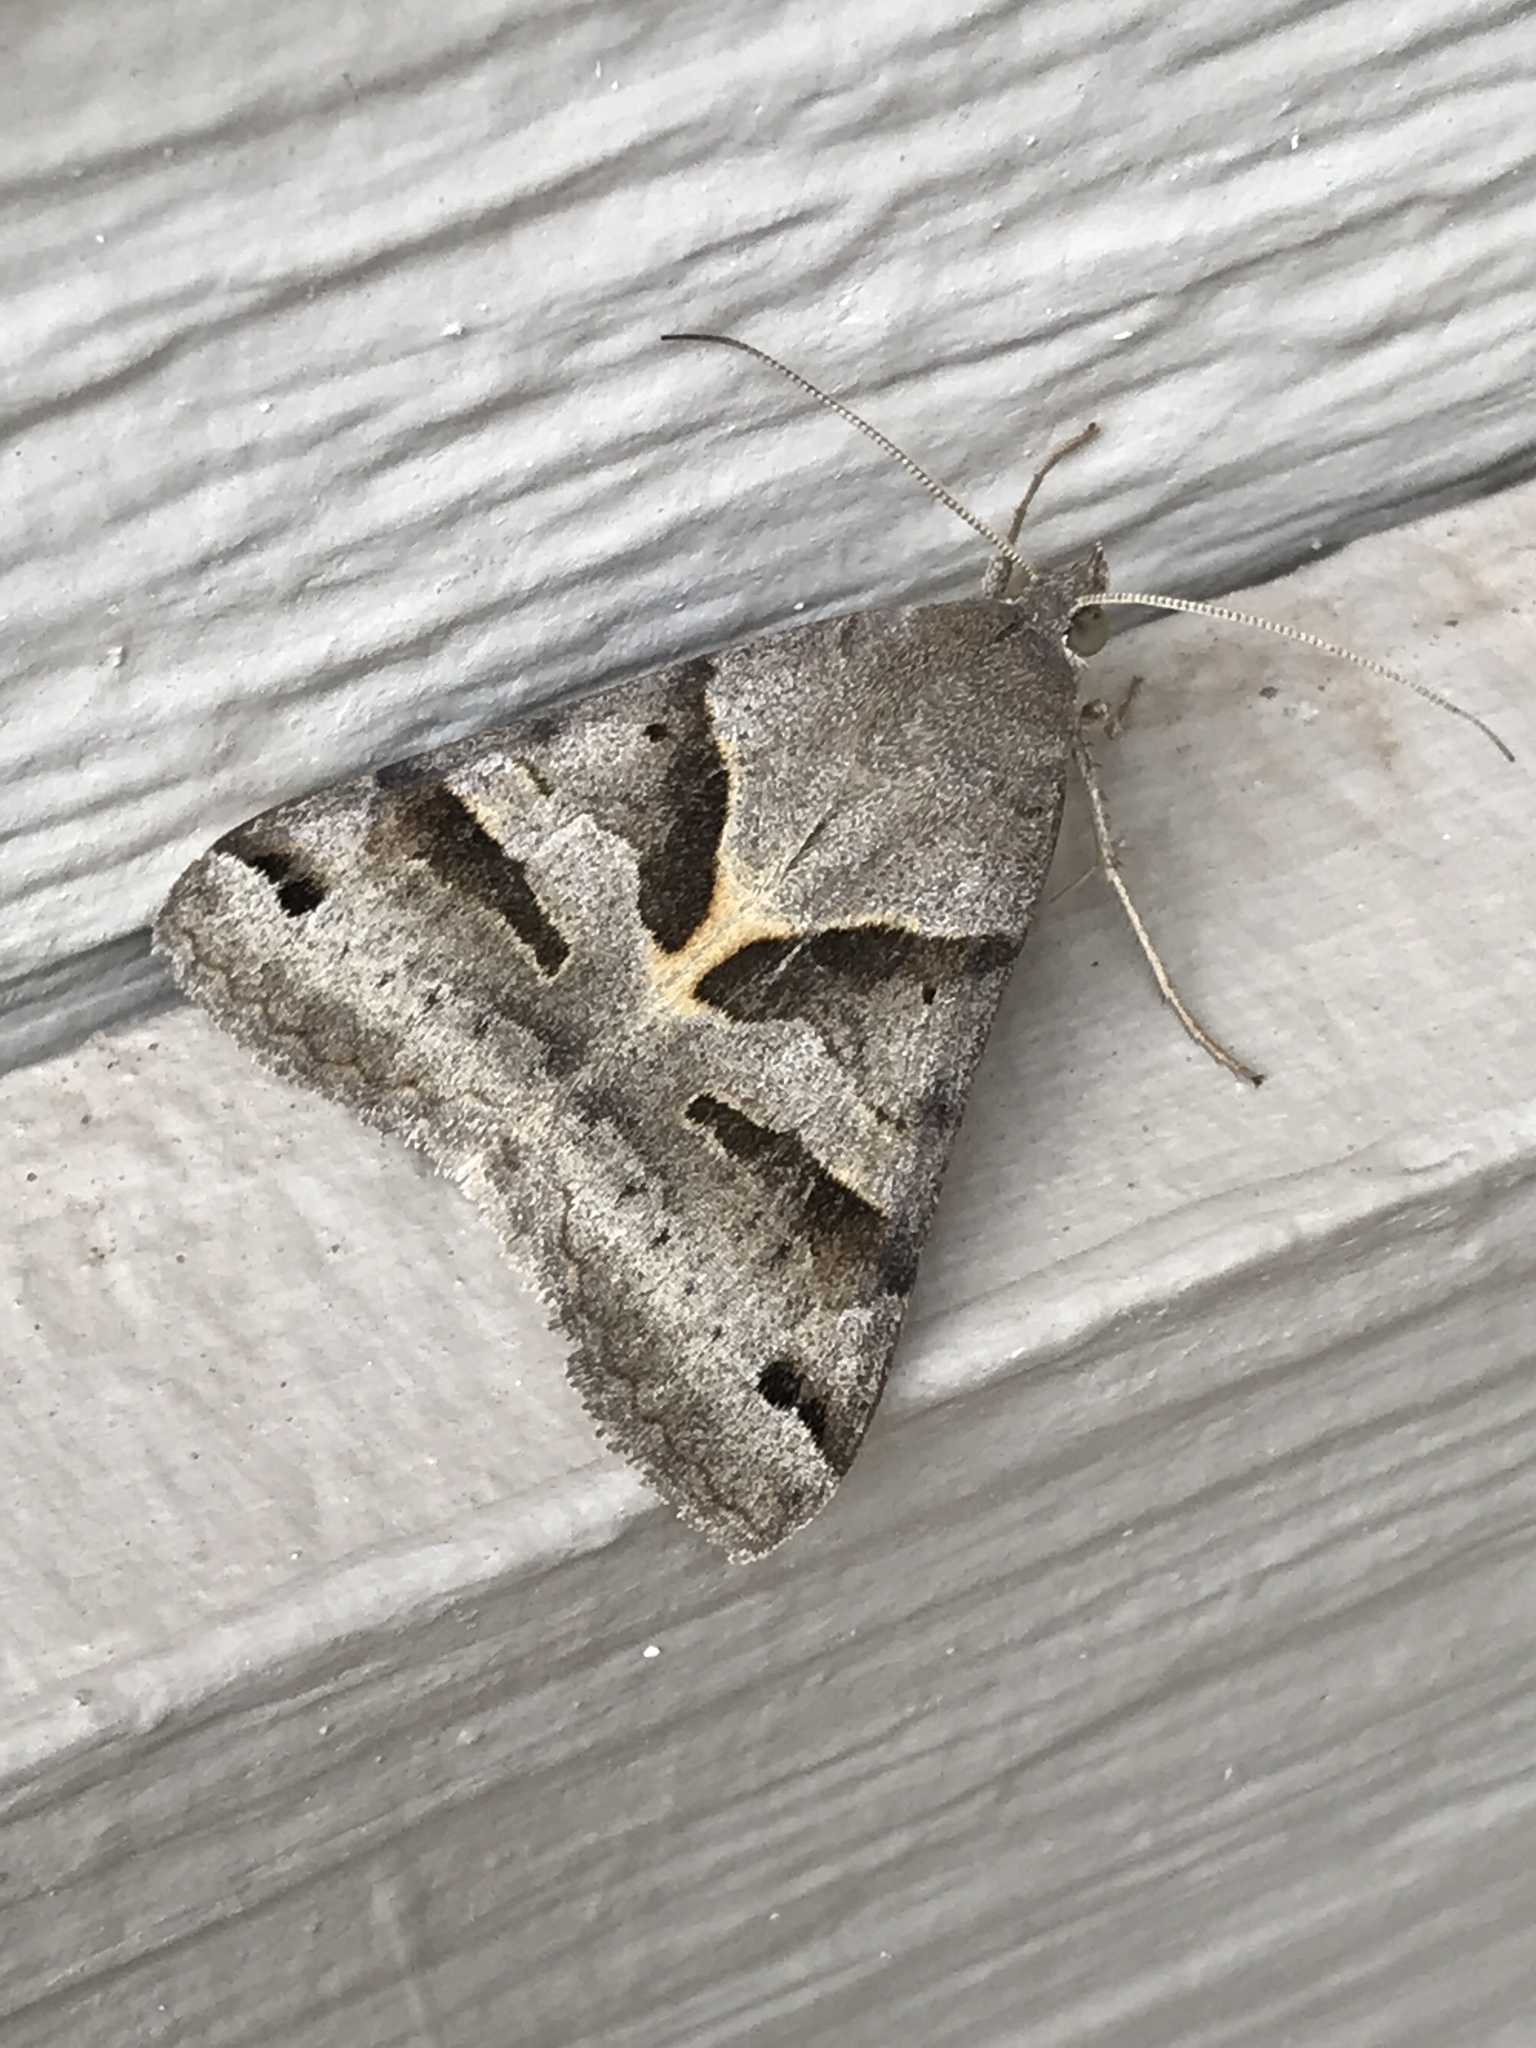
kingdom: Animalia
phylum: Arthropoda
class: Insecta
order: Lepidoptera
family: Erebidae
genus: Caenurgina
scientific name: Caenurgina erechtea
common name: Forage looper moth
